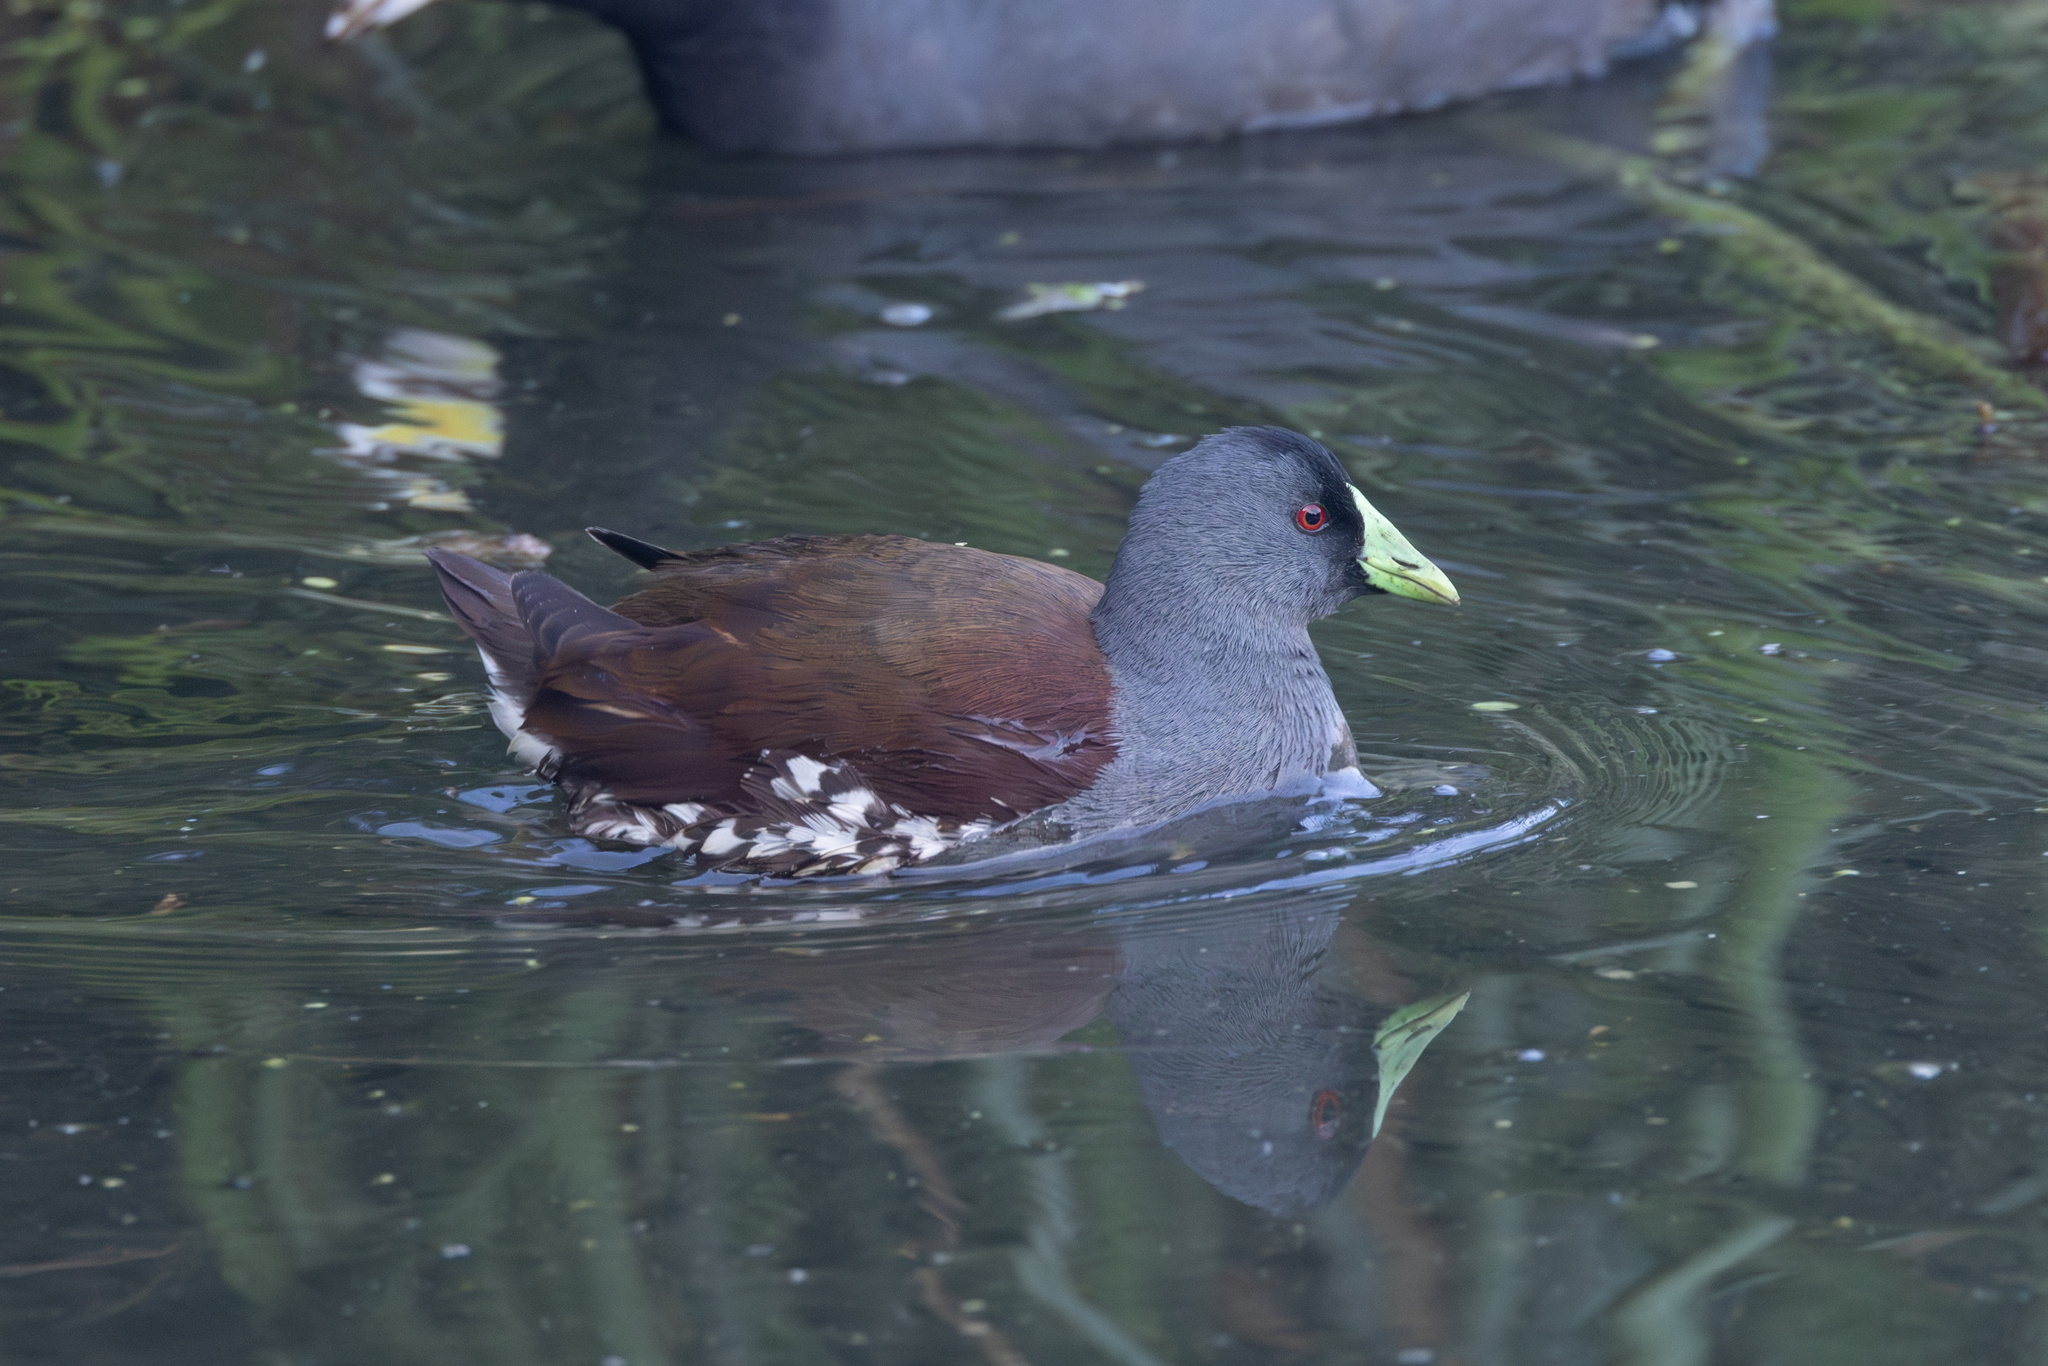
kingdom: Animalia
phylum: Chordata
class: Aves
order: Gruiformes
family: Rallidae
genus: Gallinula
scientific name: Gallinula melanops
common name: Spot-flanked gallinule
